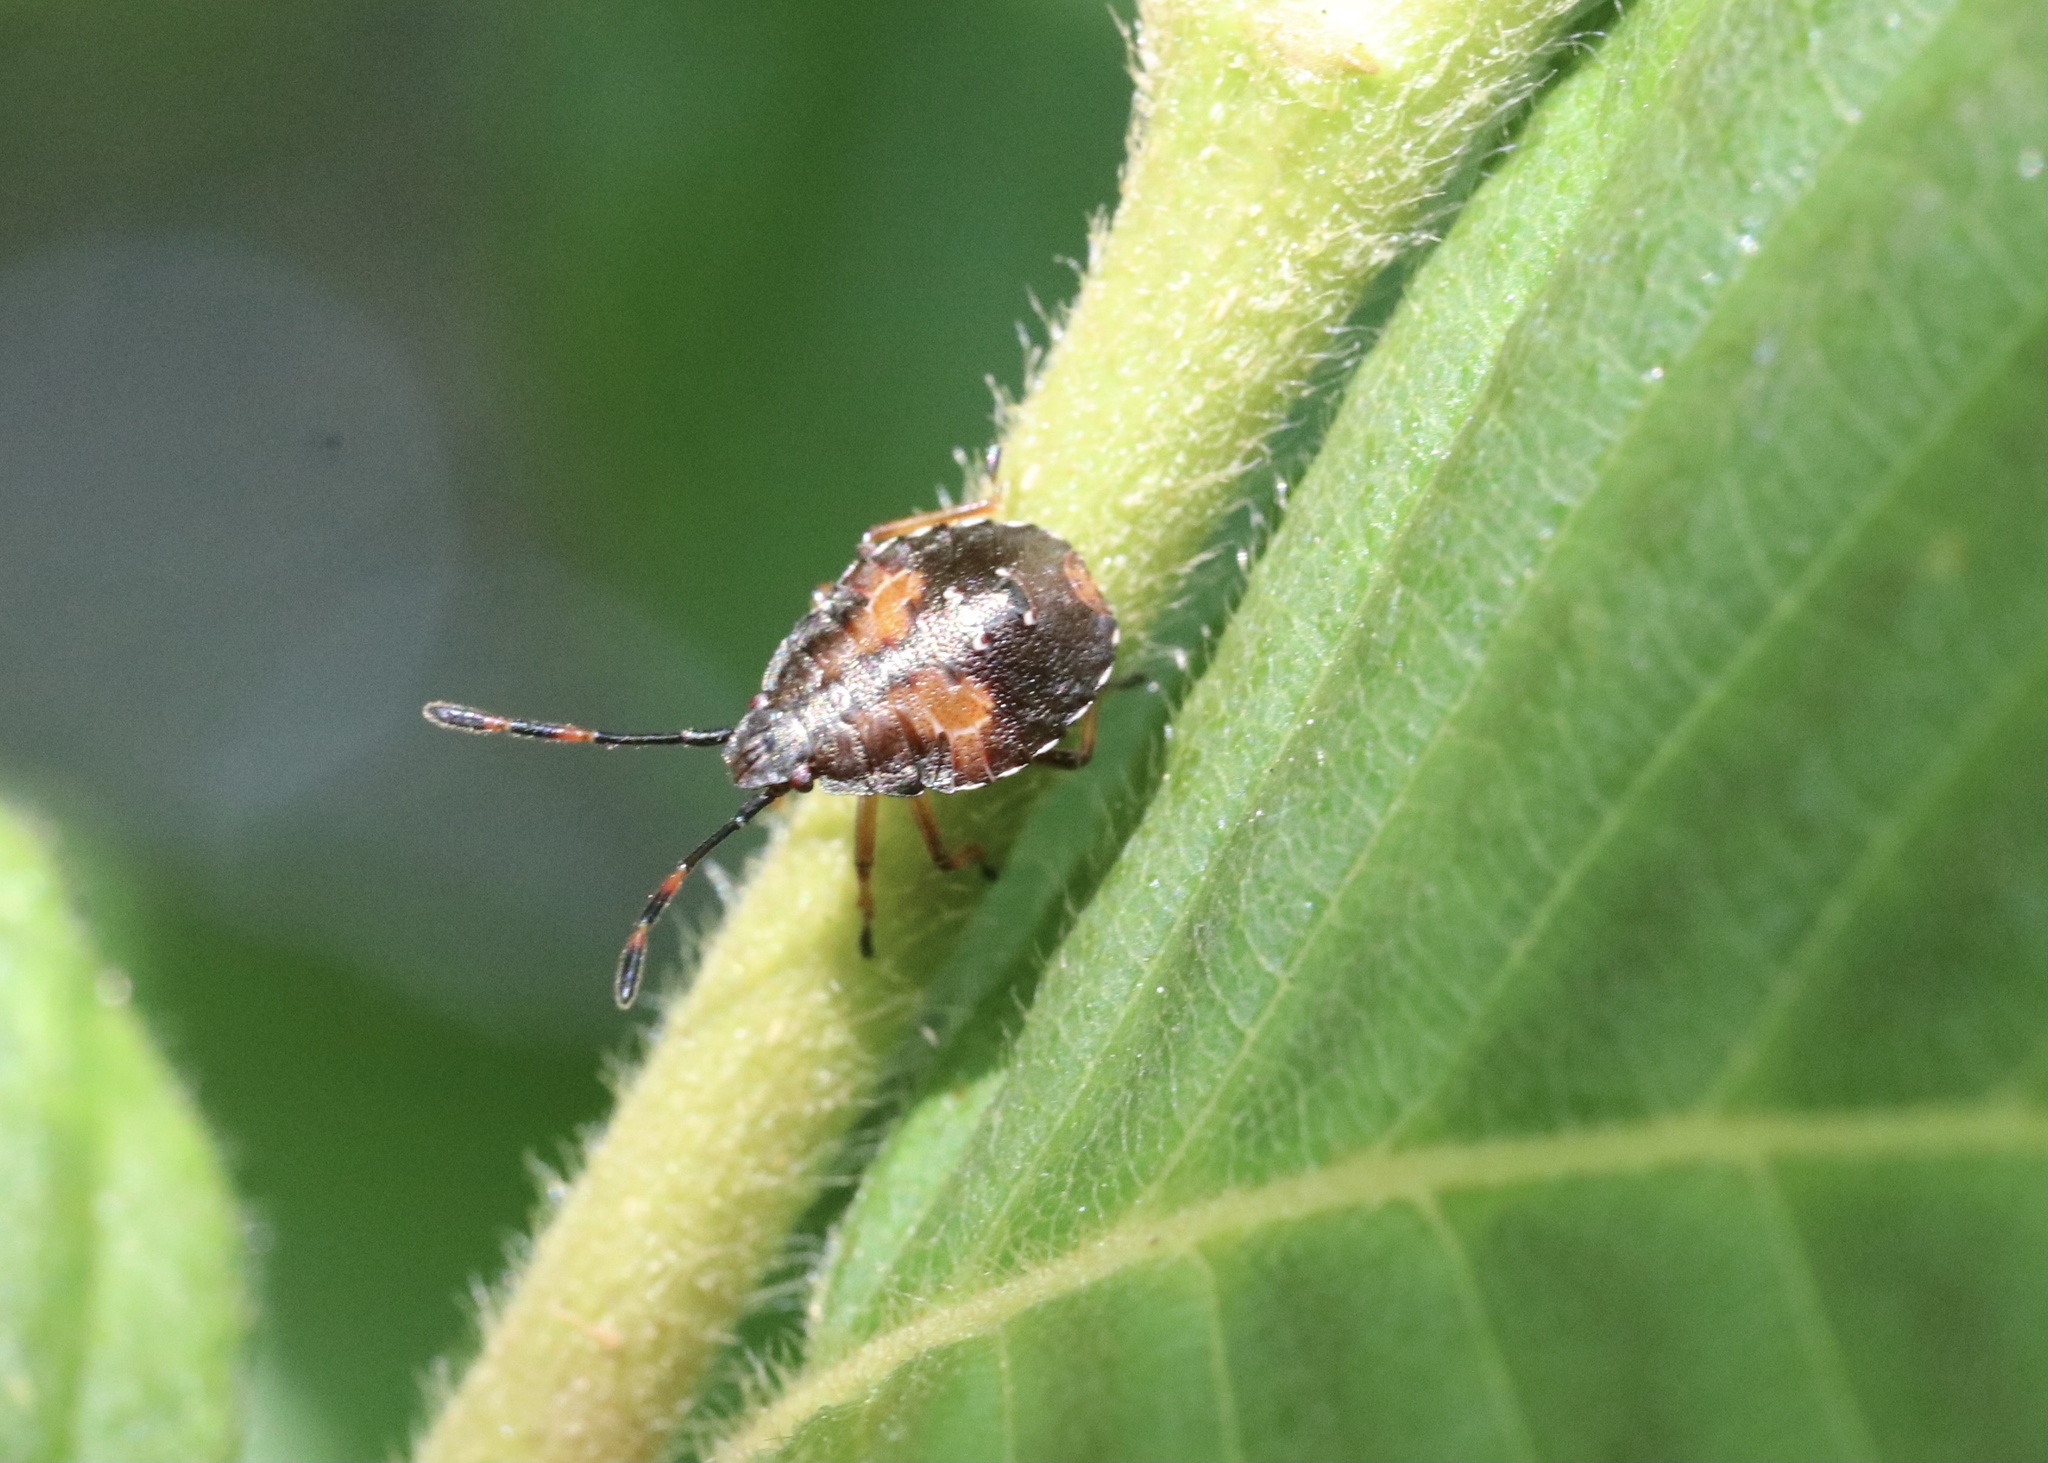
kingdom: Animalia
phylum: Arthropoda
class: Insecta
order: Hemiptera
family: Acanthosomatidae
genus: Planois
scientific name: Planois gayi
